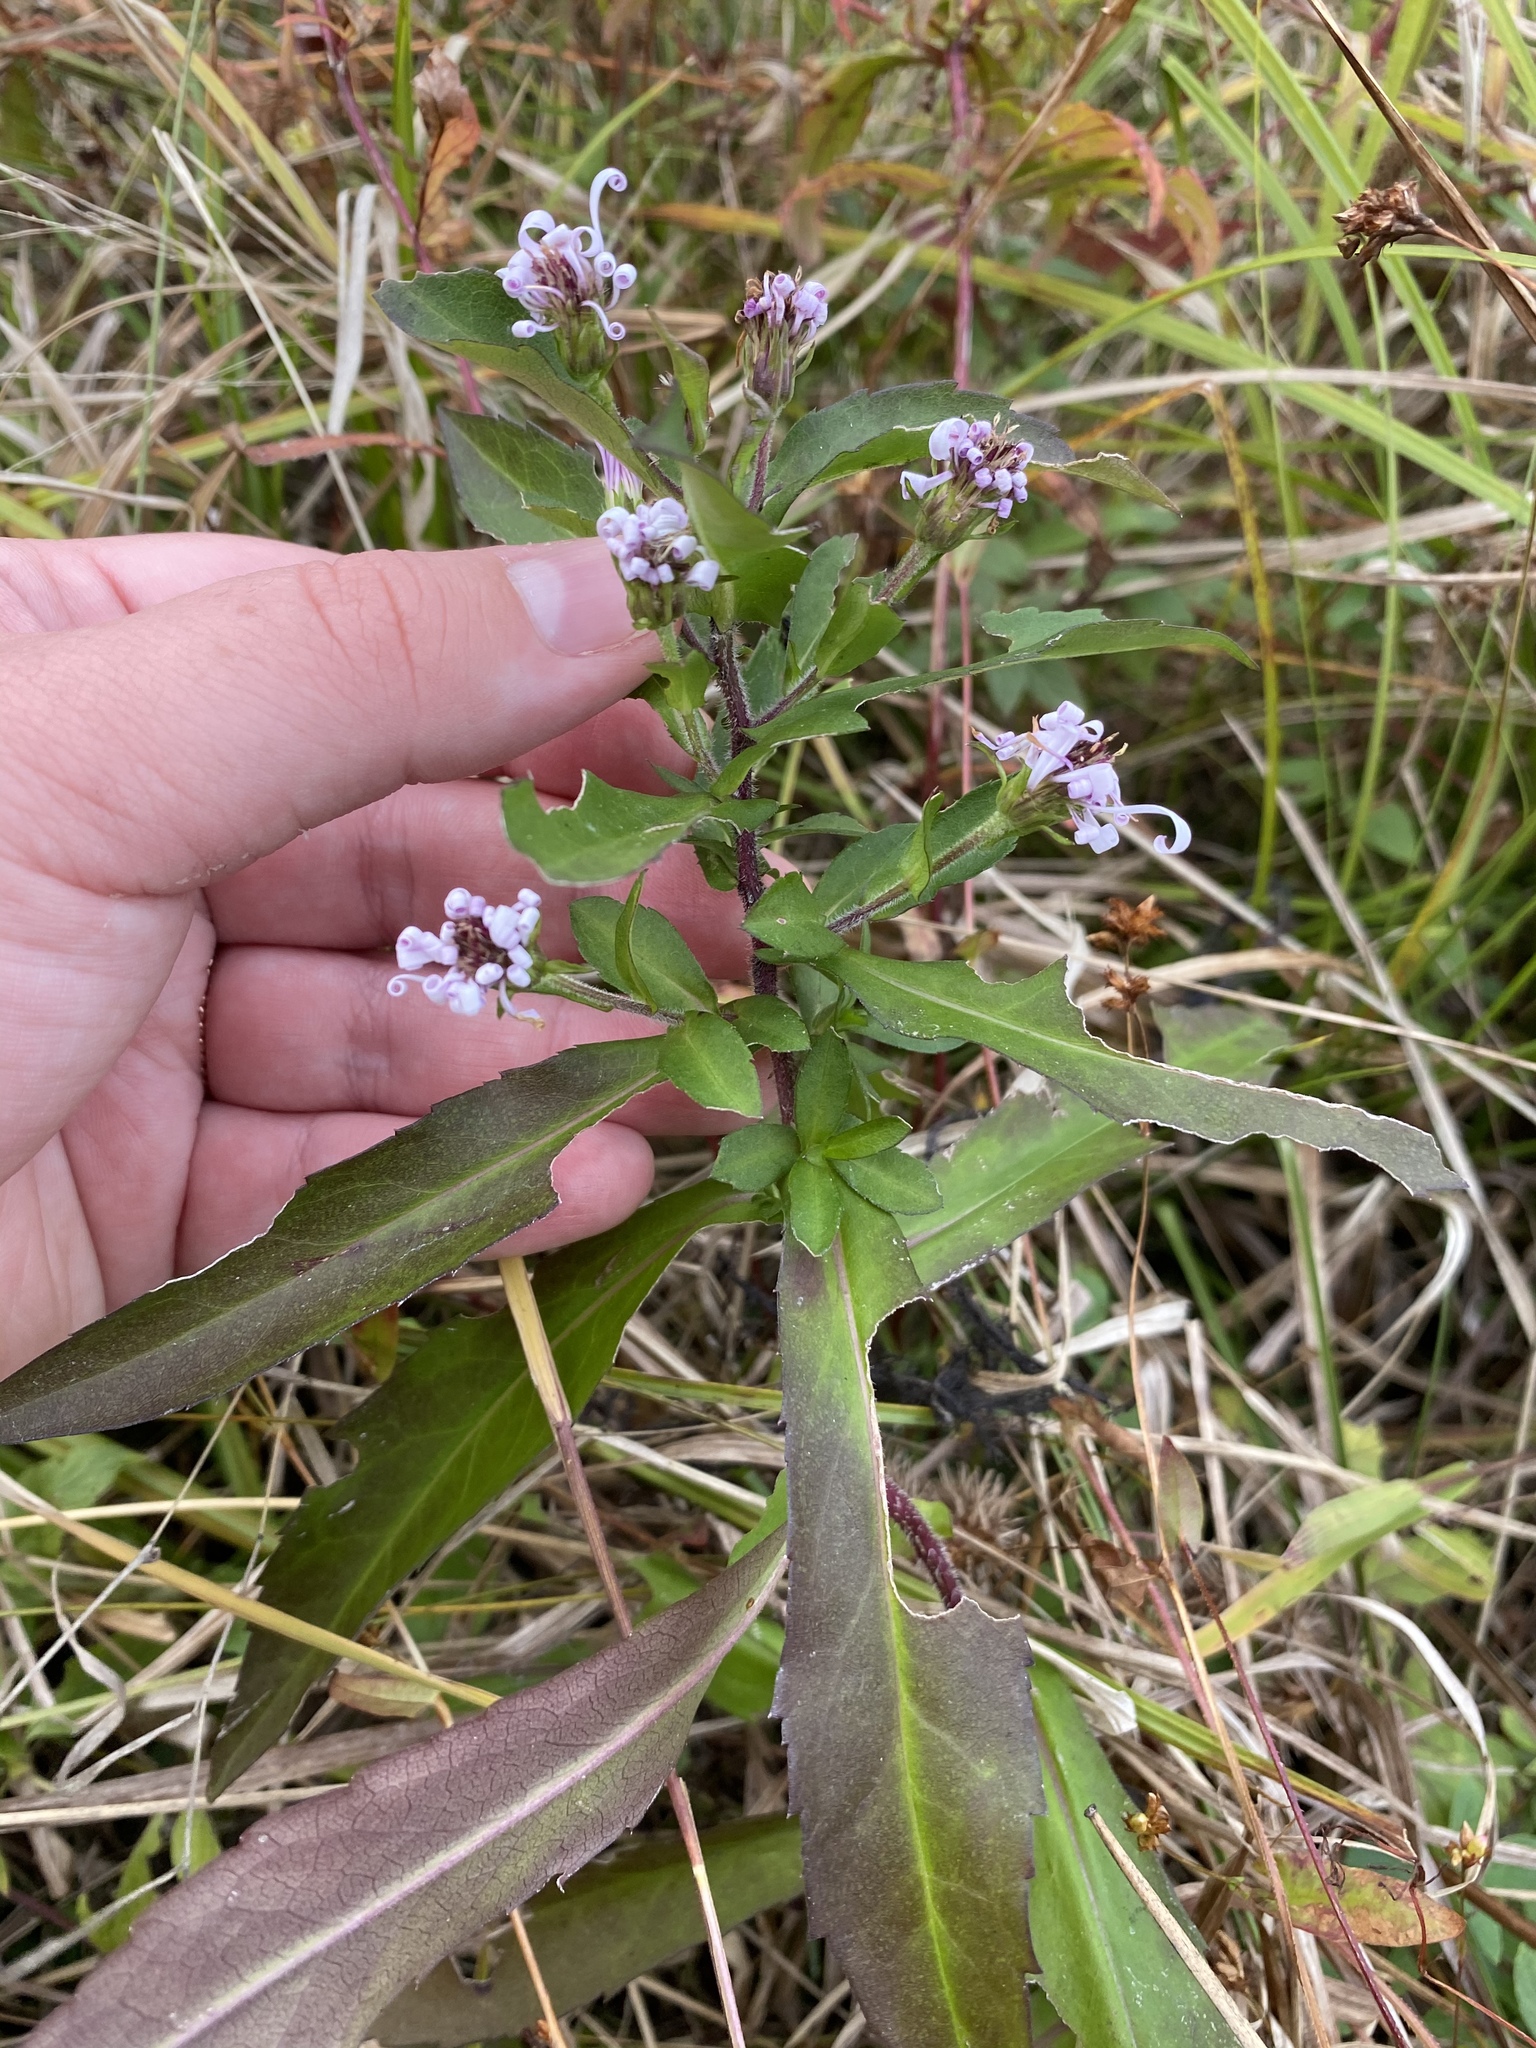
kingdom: Plantae
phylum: Tracheophyta
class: Magnoliopsida
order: Asterales
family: Asteraceae
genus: Symphyotrichum
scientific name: Symphyotrichum puniceum
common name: Bog aster
